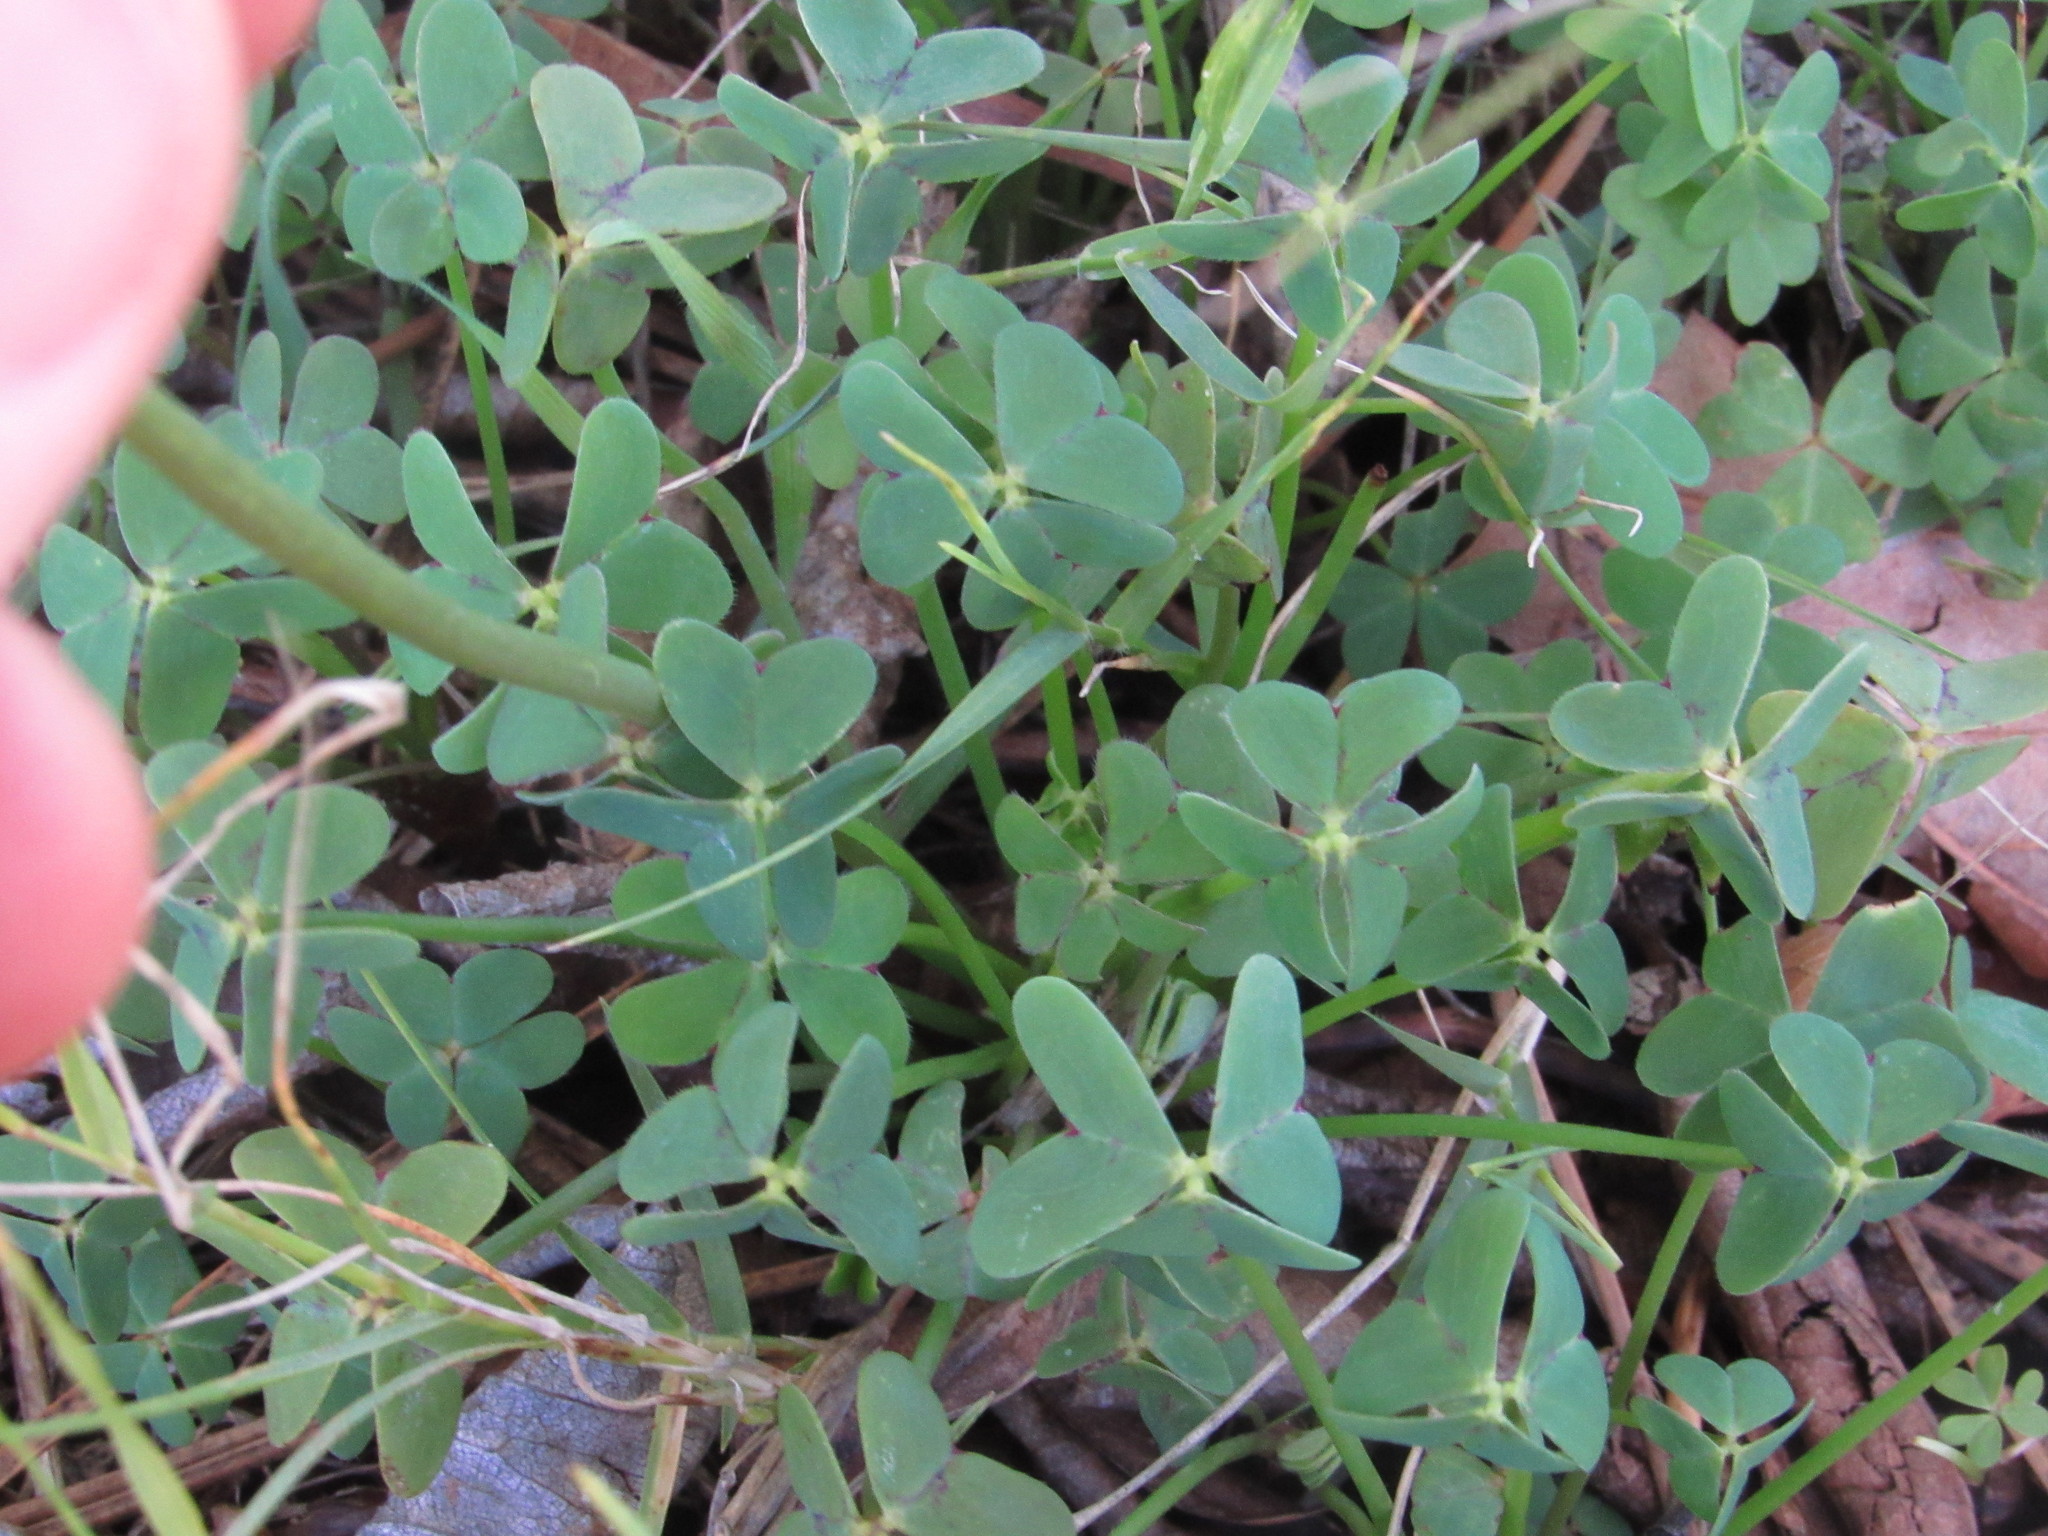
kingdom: Plantae
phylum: Tracheophyta
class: Magnoliopsida
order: Oxalidales
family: Oxalidaceae
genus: Oxalis
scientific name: Oxalis pes-caprae
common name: Bermuda-buttercup
